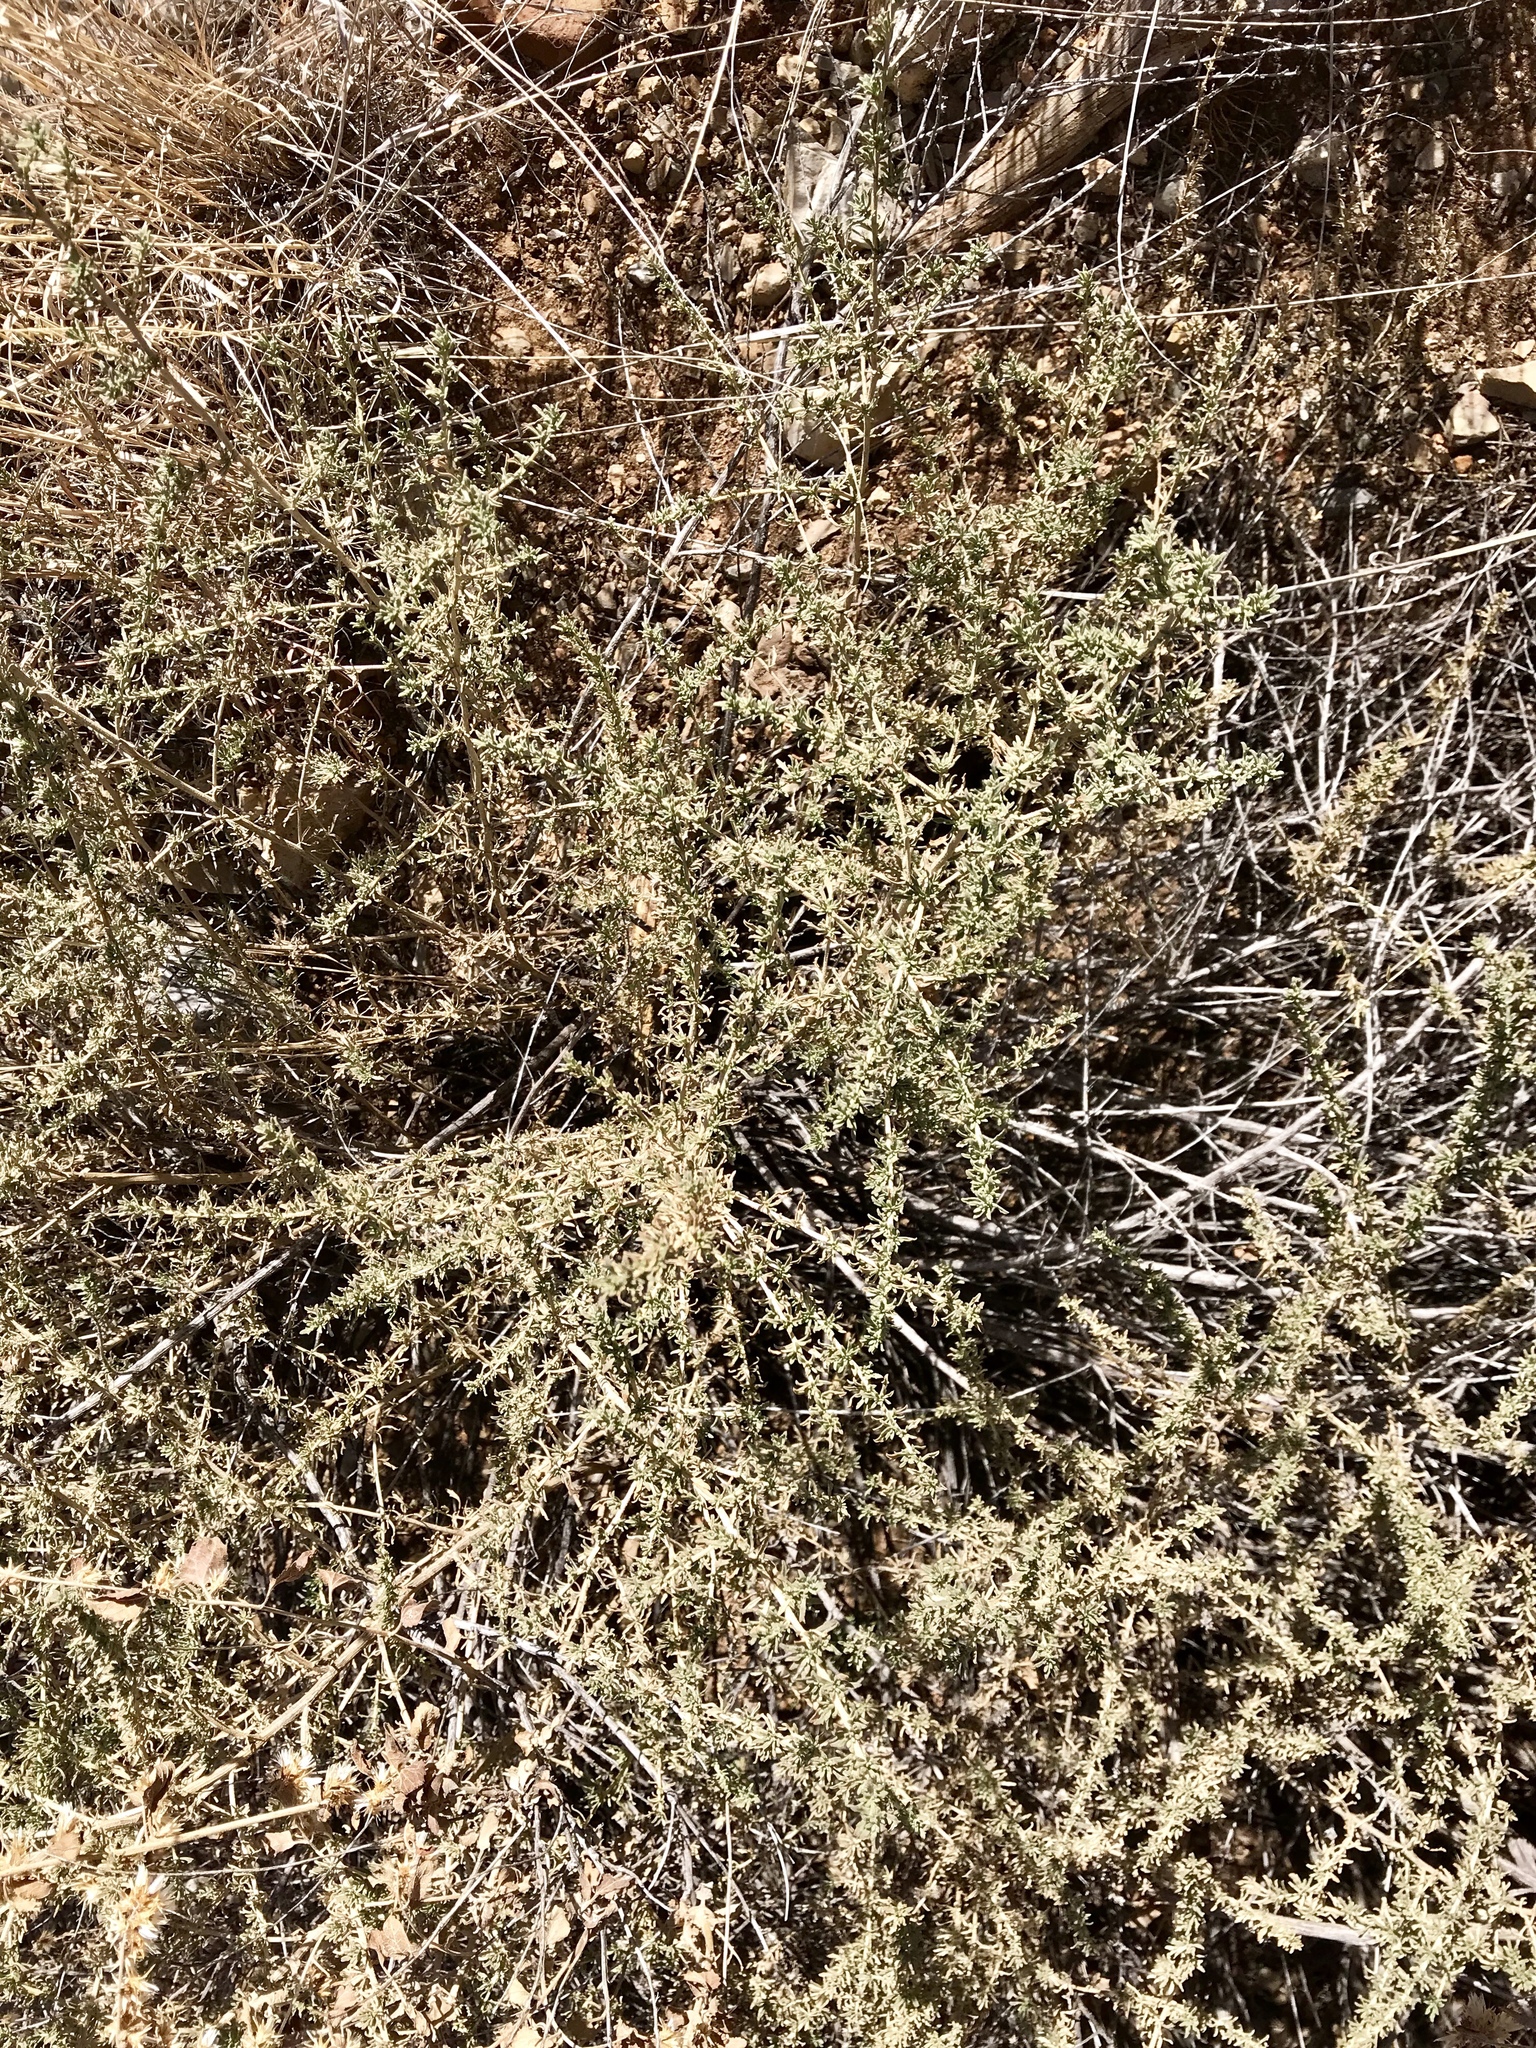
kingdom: Plantae
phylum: Tracheophyta
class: Magnoliopsida
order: Asterales
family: Asteraceae
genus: Baccharis
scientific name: Baccharis pteronioides
